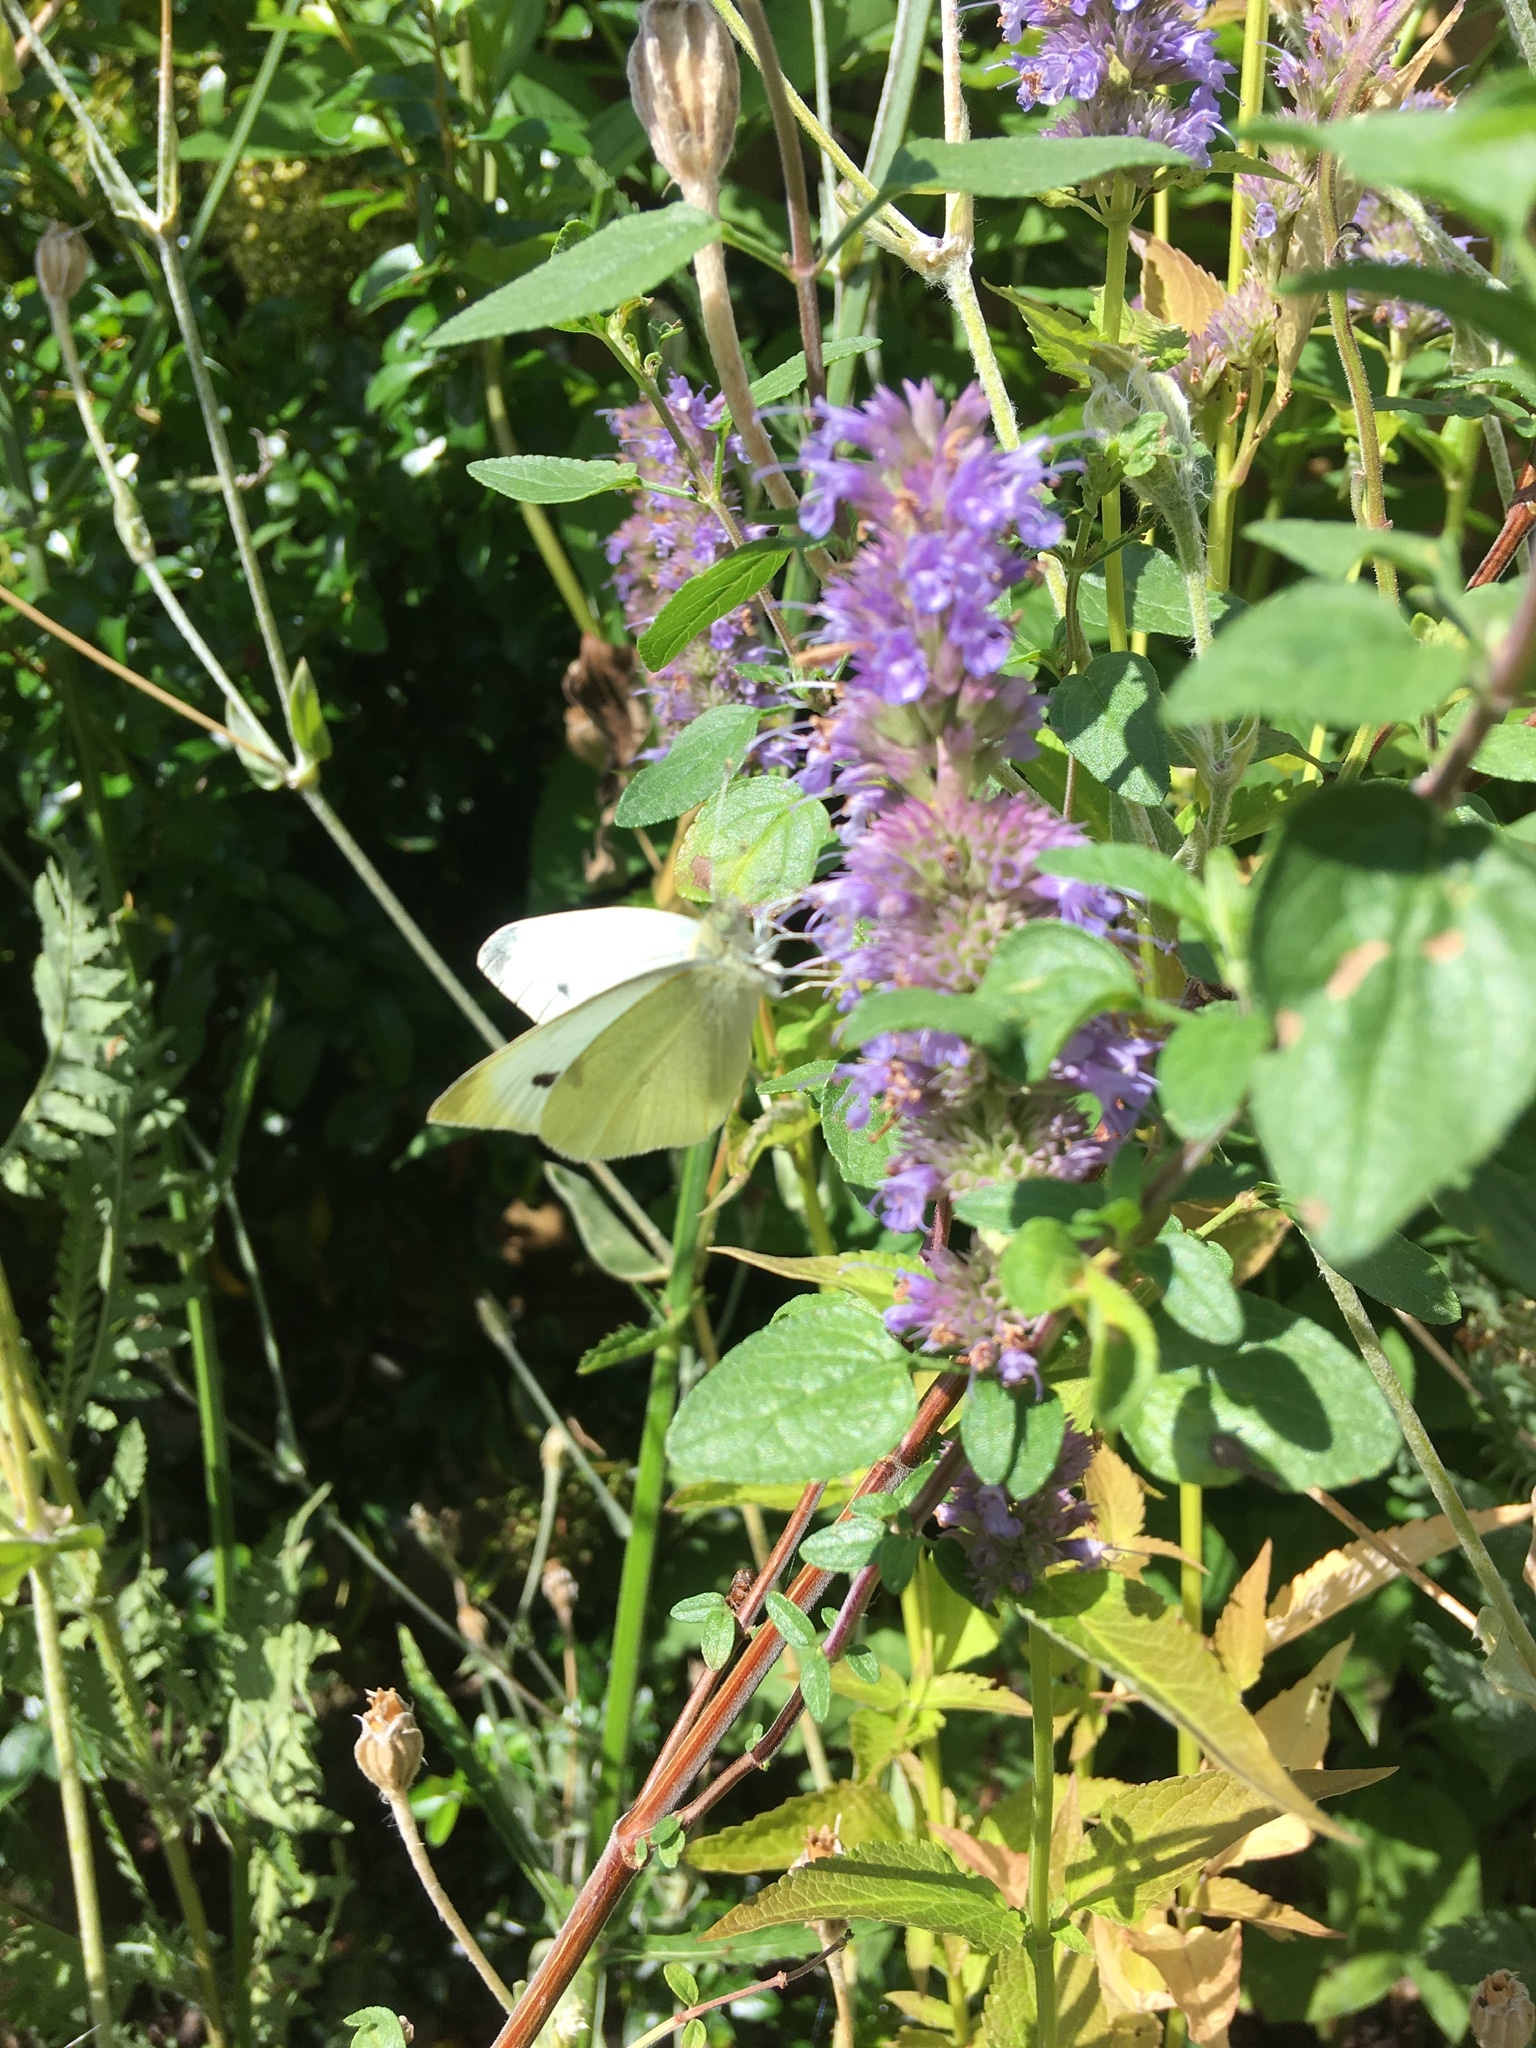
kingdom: Animalia
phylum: Arthropoda
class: Insecta
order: Lepidoptera
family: Pieridae
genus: Pieris
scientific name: Pieris rapae
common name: Small white
